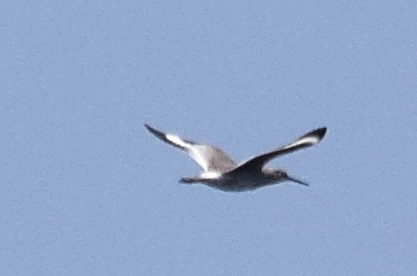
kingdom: Animalia
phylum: Chordata
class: Aves
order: Charadriiformes
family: Scolopacidae
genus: Tringa
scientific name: Tringa semipalmata
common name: Willet
